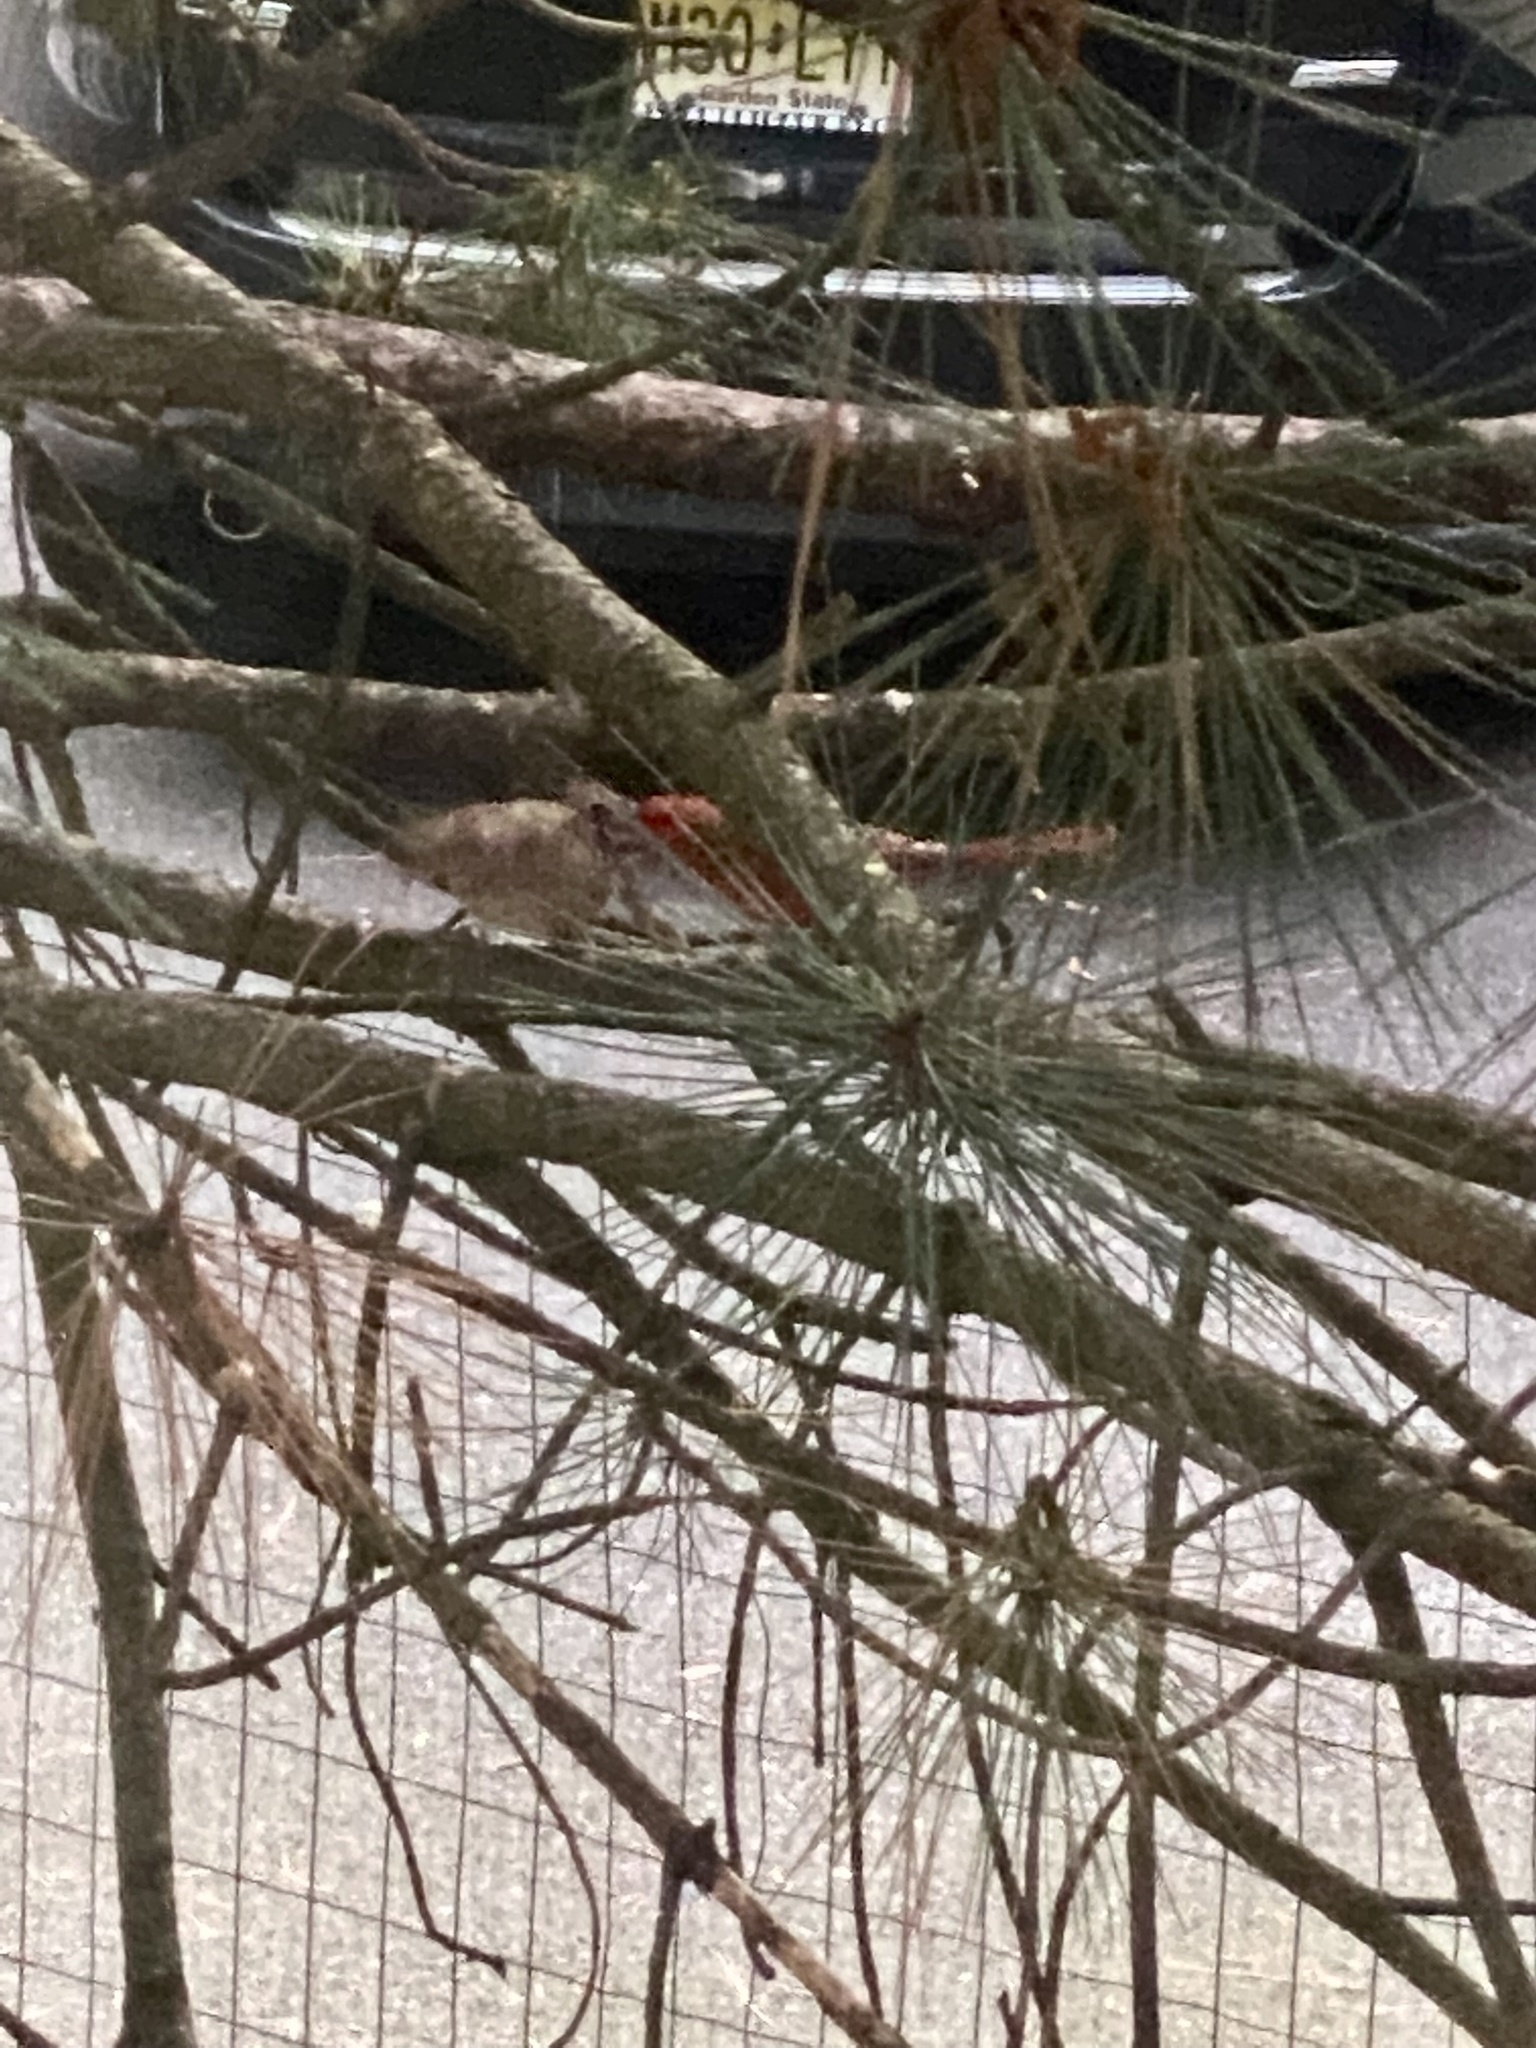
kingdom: Animalia
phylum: Chordata
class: Aves
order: Passeriformes
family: Cardinalidae
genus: Cardinalis
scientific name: Cardinalis cardinalis
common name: Northern cardinal
